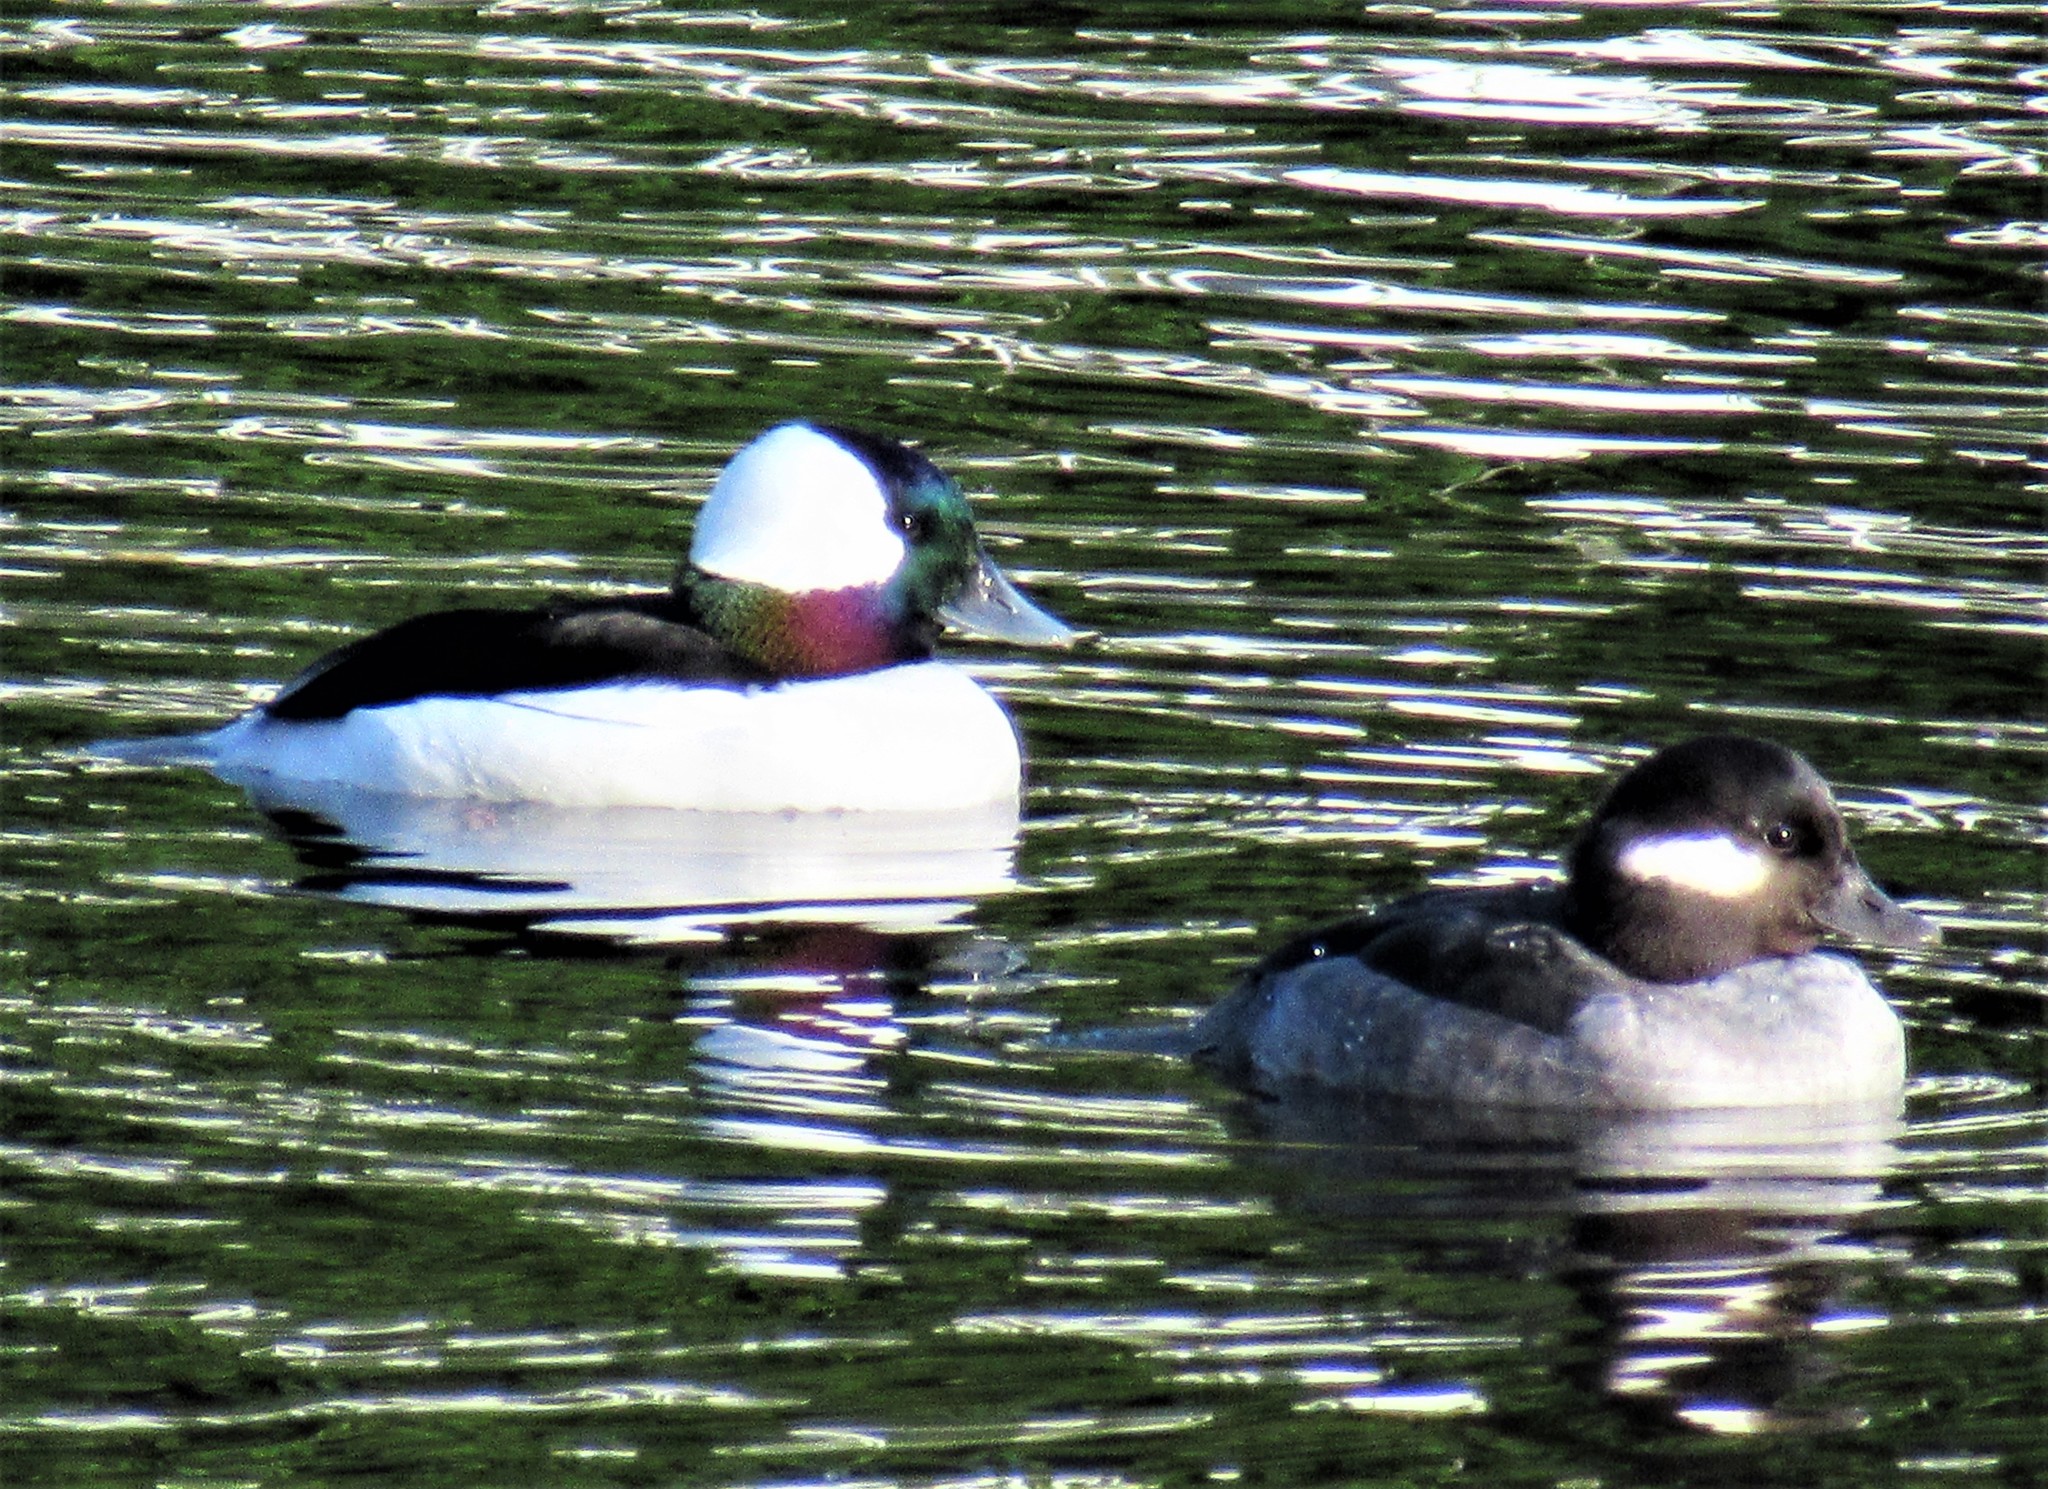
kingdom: Animalia
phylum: Chordata
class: Aves
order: Anseriformes
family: Anatidae
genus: Bucephala
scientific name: Bucephala albeola
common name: Bufflehead
